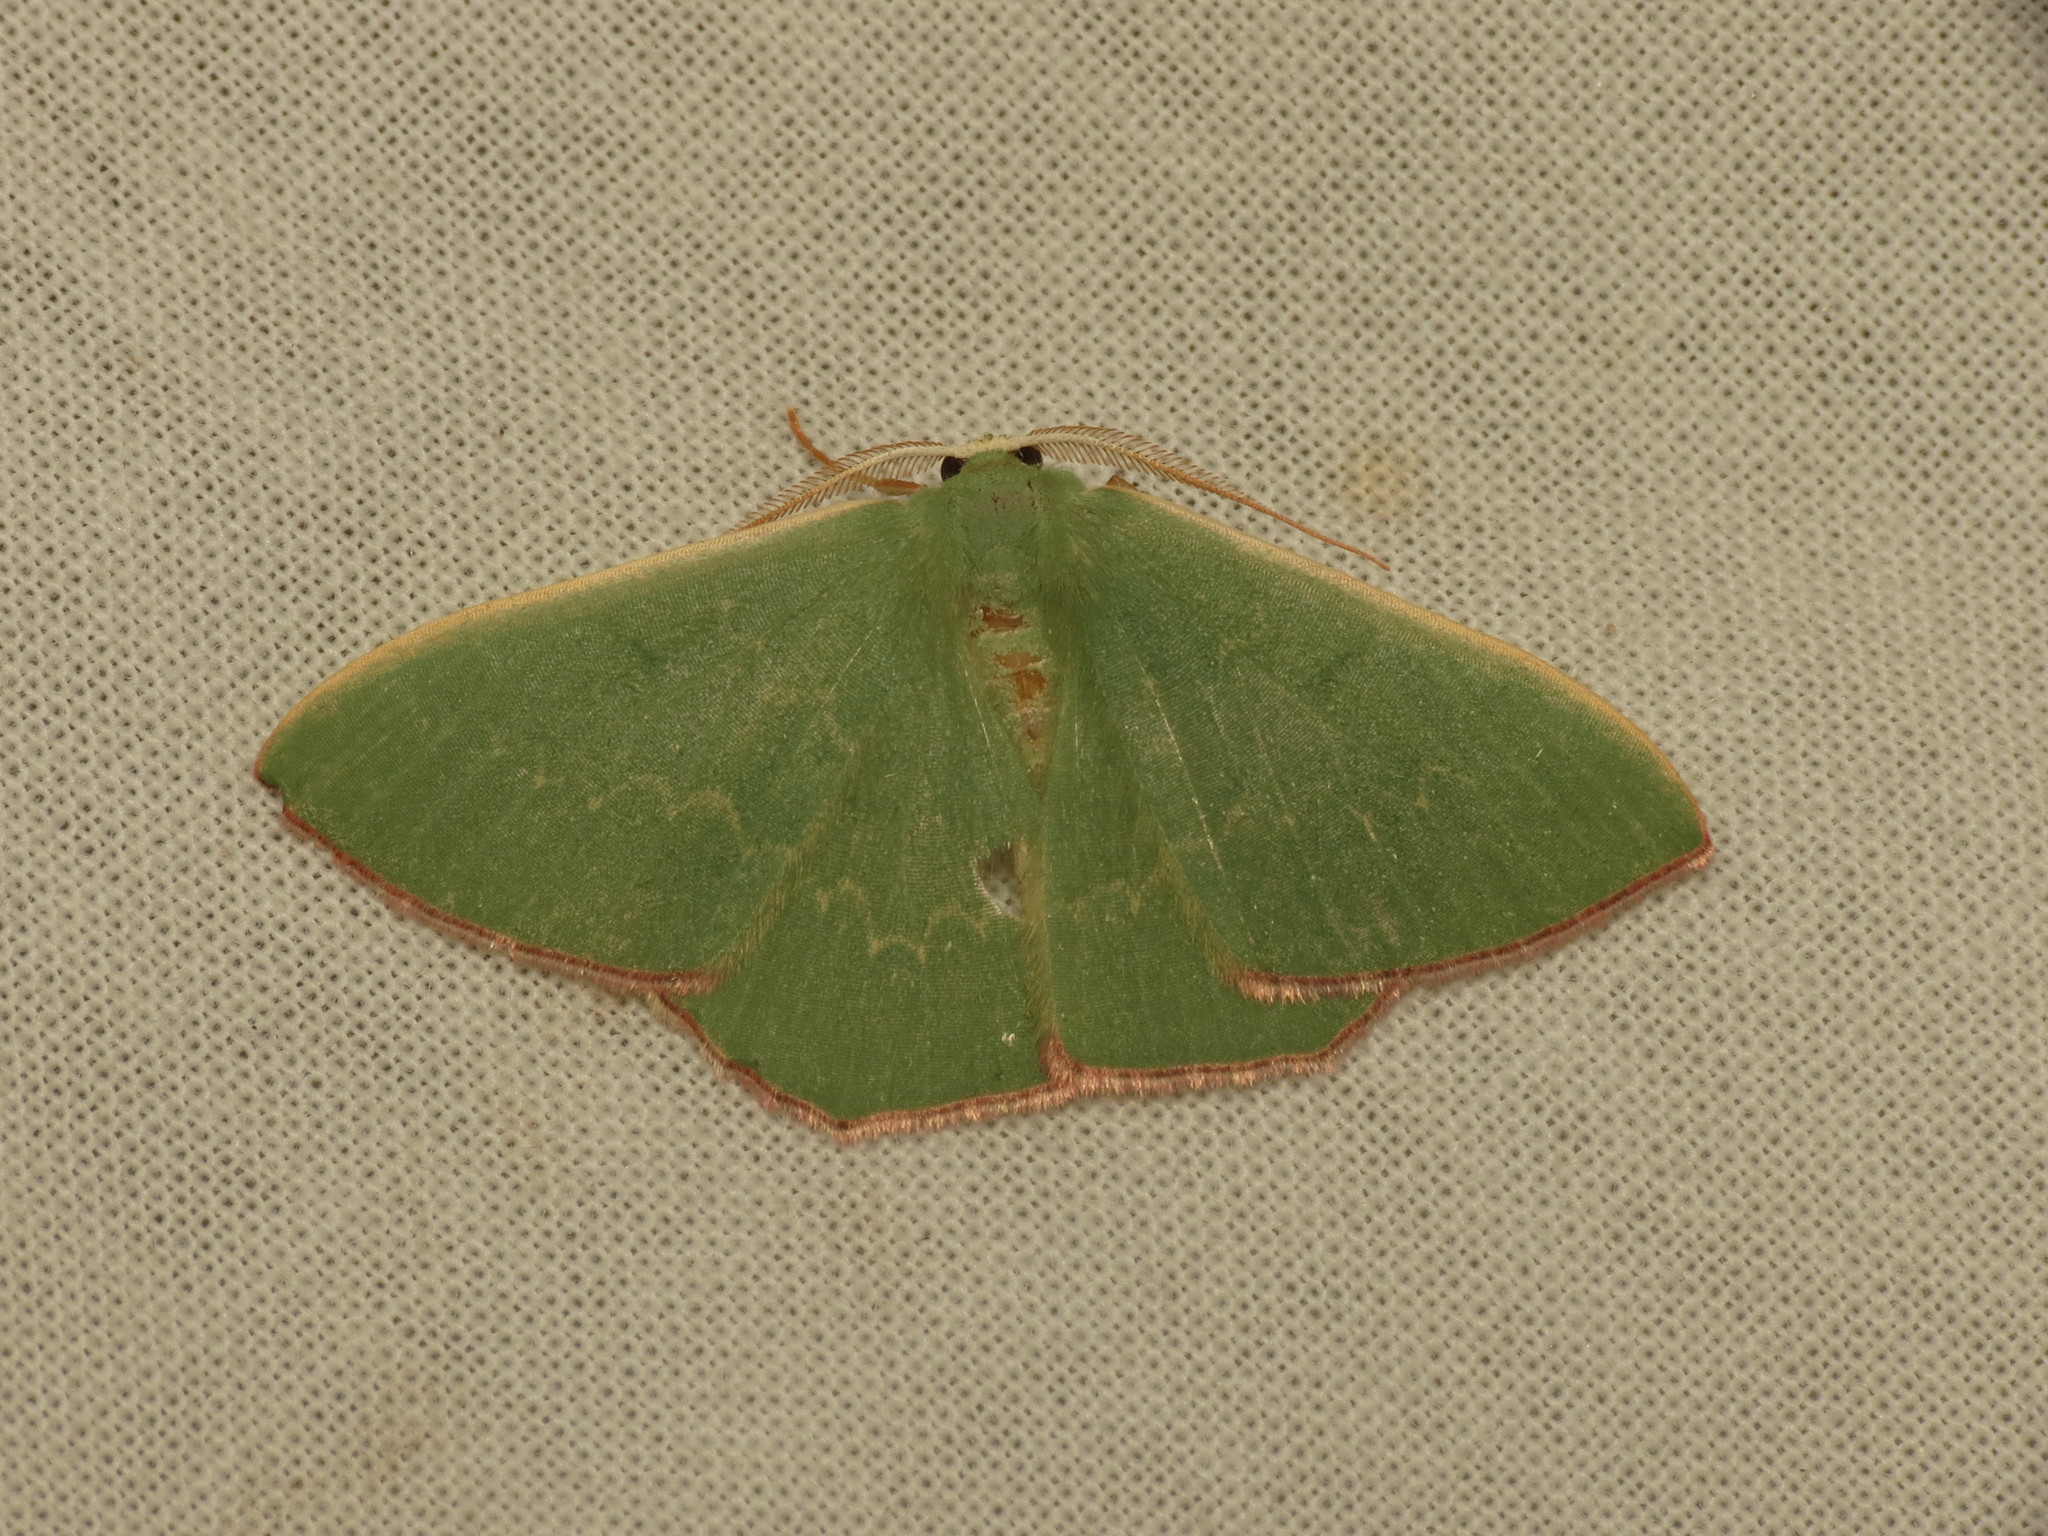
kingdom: Animalia
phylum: Arthropoda
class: Insecta
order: Lepidoptera
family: Geometridae
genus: Prasinocyma
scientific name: Prasinocyma semicrocea
